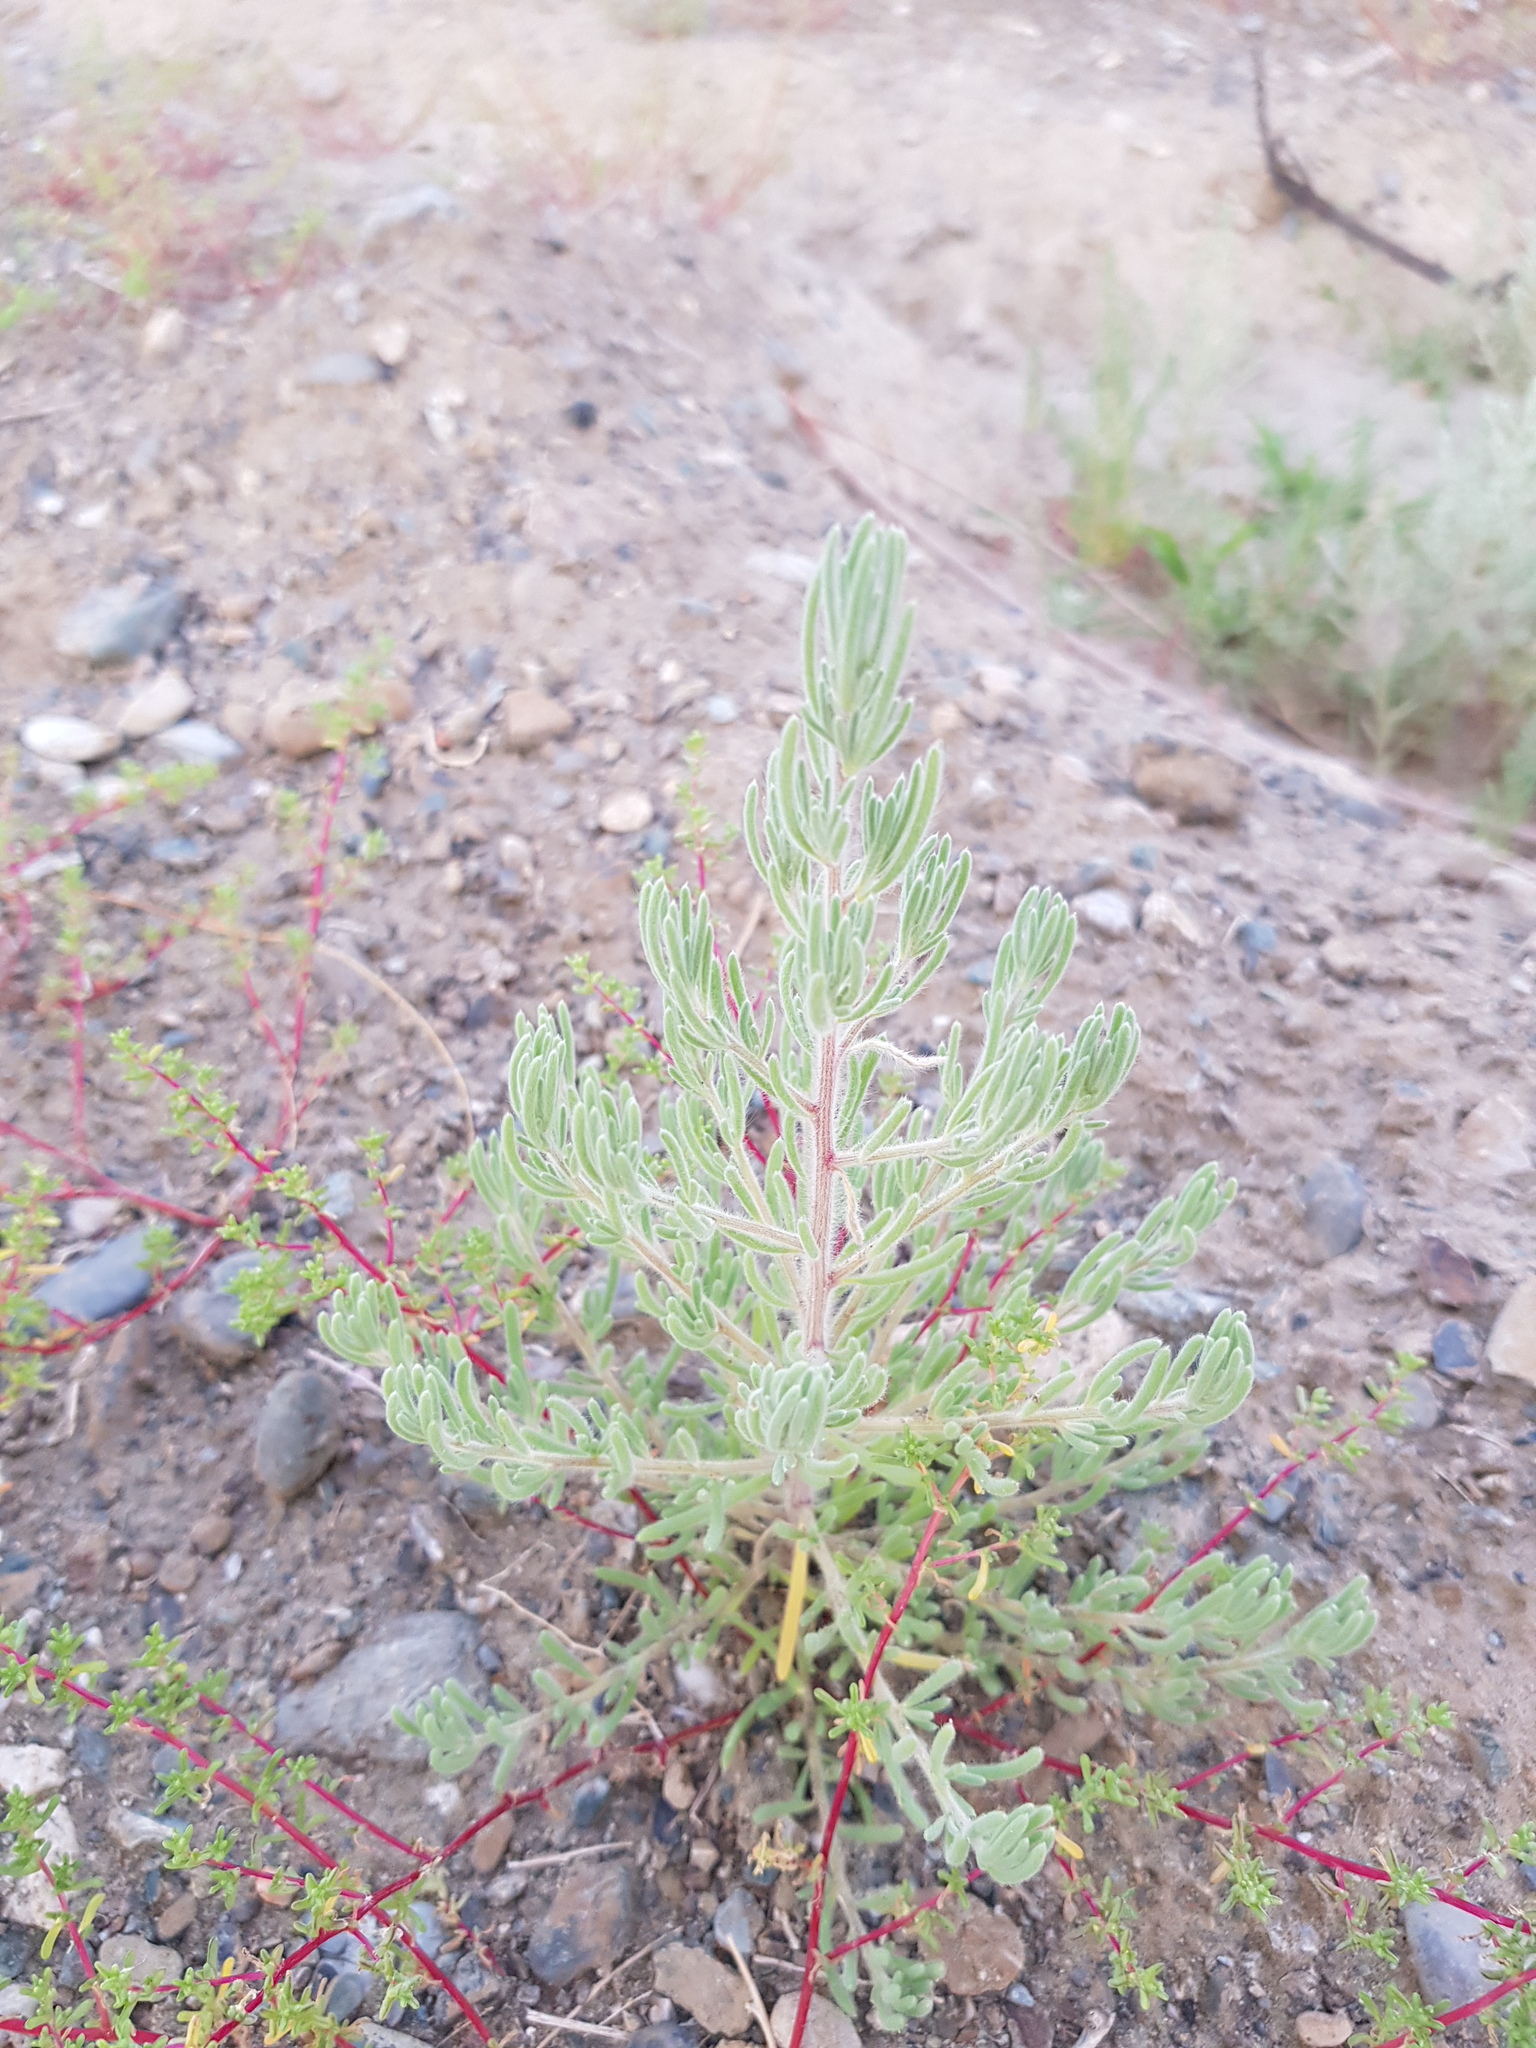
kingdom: Plantae
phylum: Tracheophyta
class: Magnoliopsida
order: Caryophyllales
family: Amaranthaceae
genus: Bassia
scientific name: Bassia prostrata
